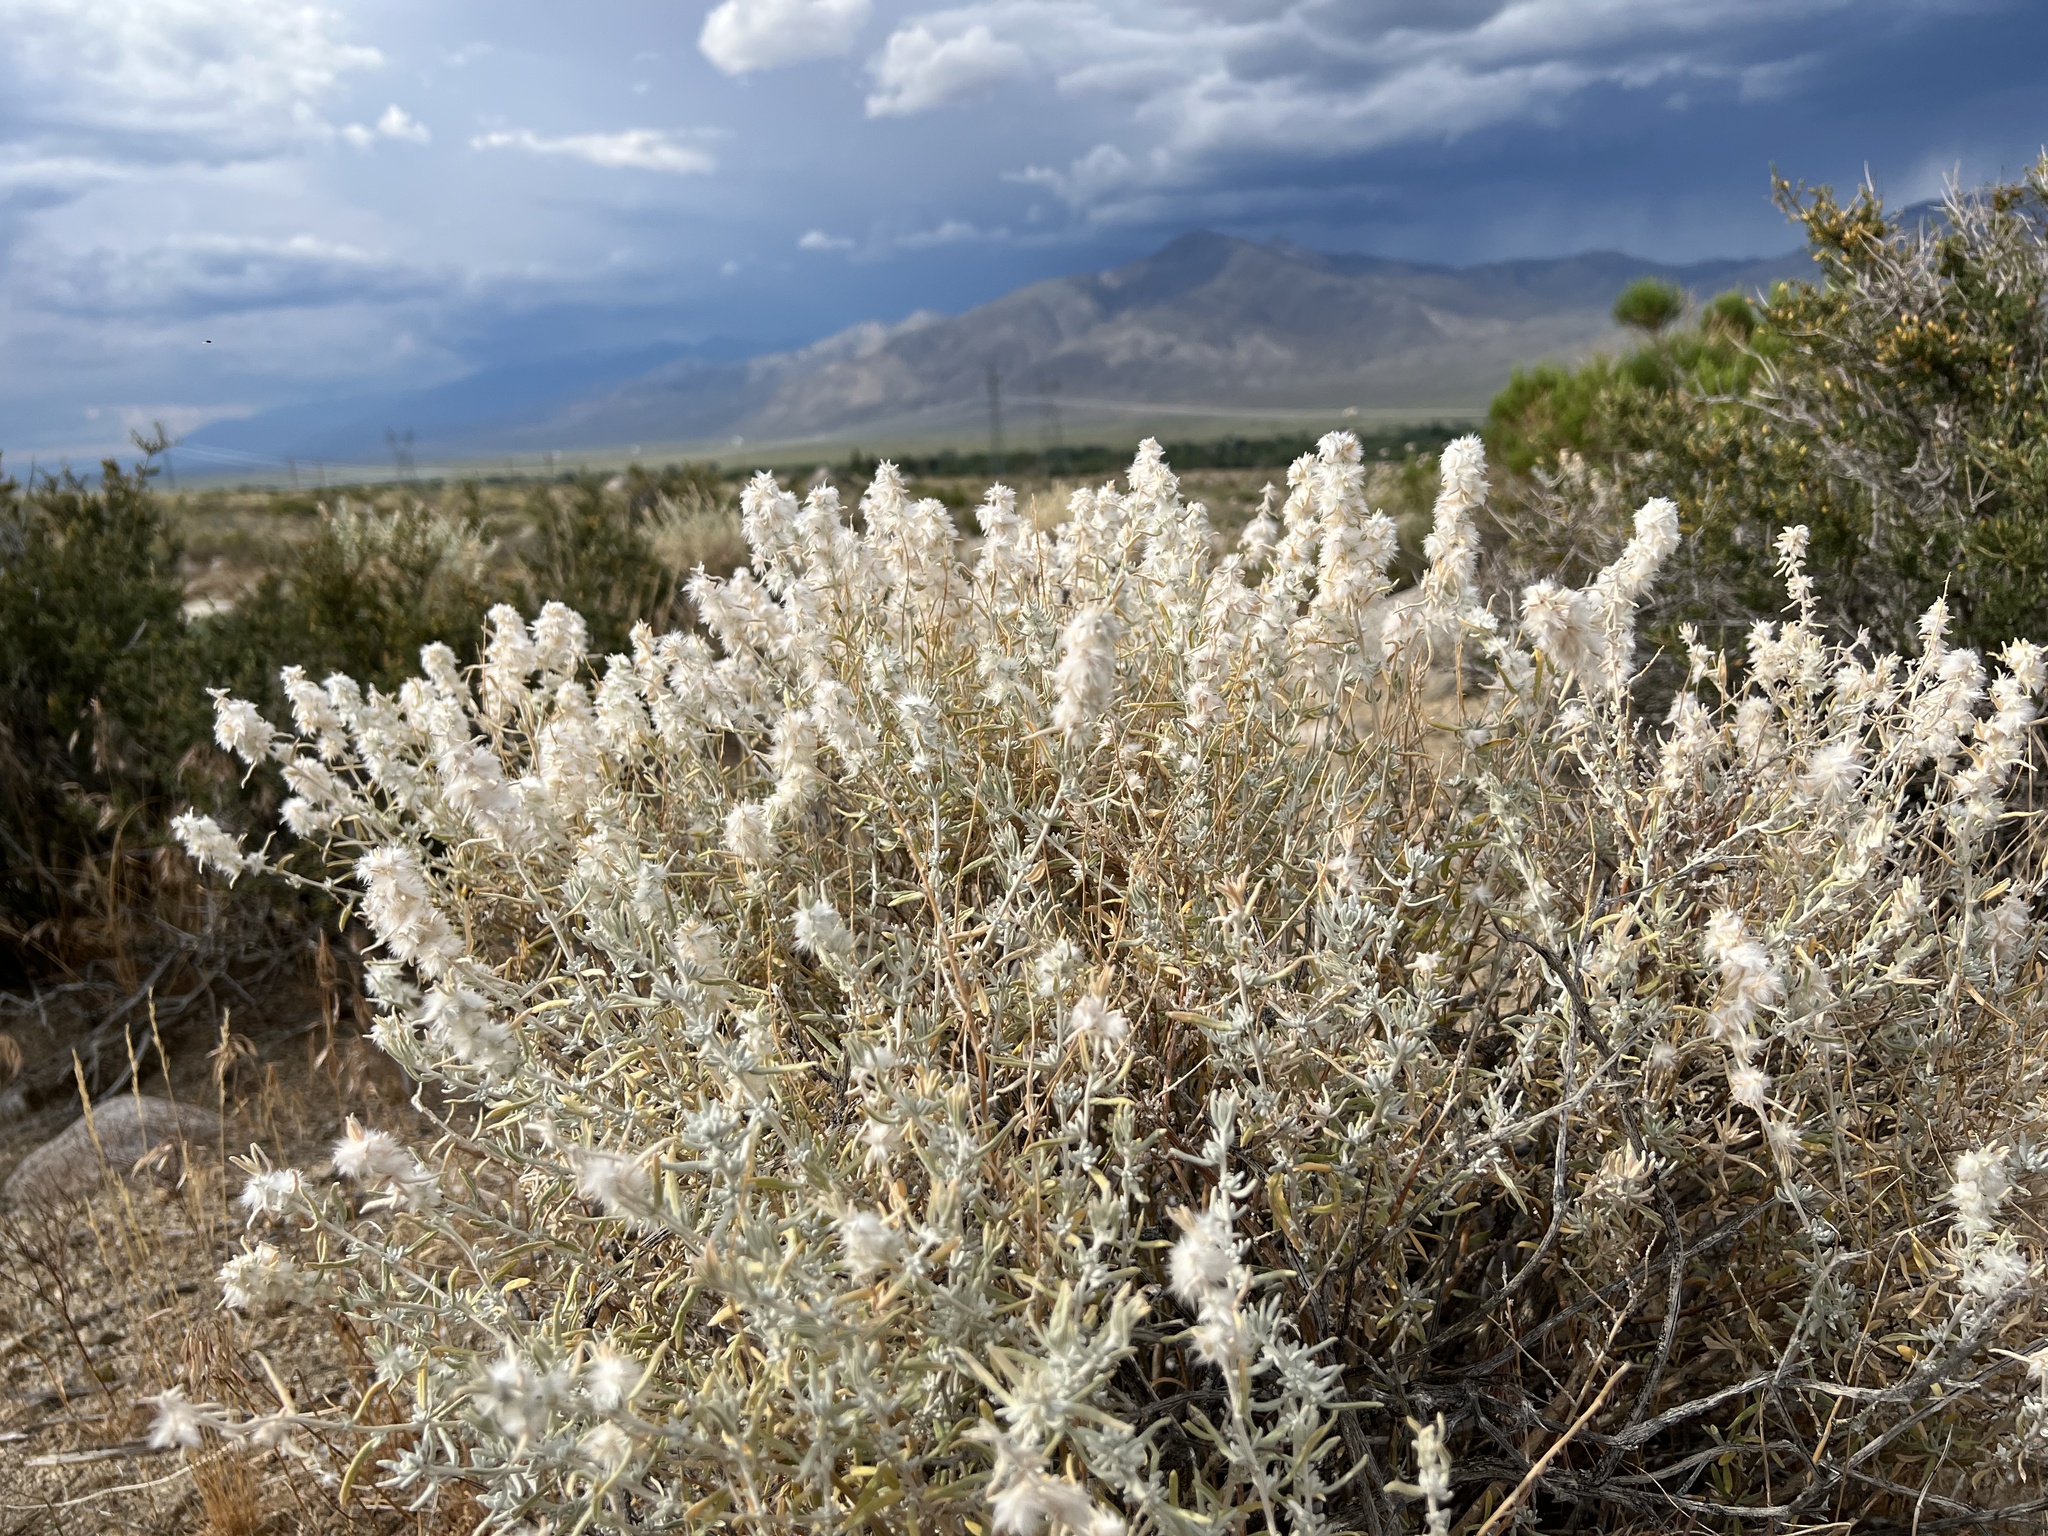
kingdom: Plantae
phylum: Tracheophyta
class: Magnoliopsida
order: Caryophyllales
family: Amaranthaceae
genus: Krascheninnikovia
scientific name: Krascheninnikovia lanata
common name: Winterfat
